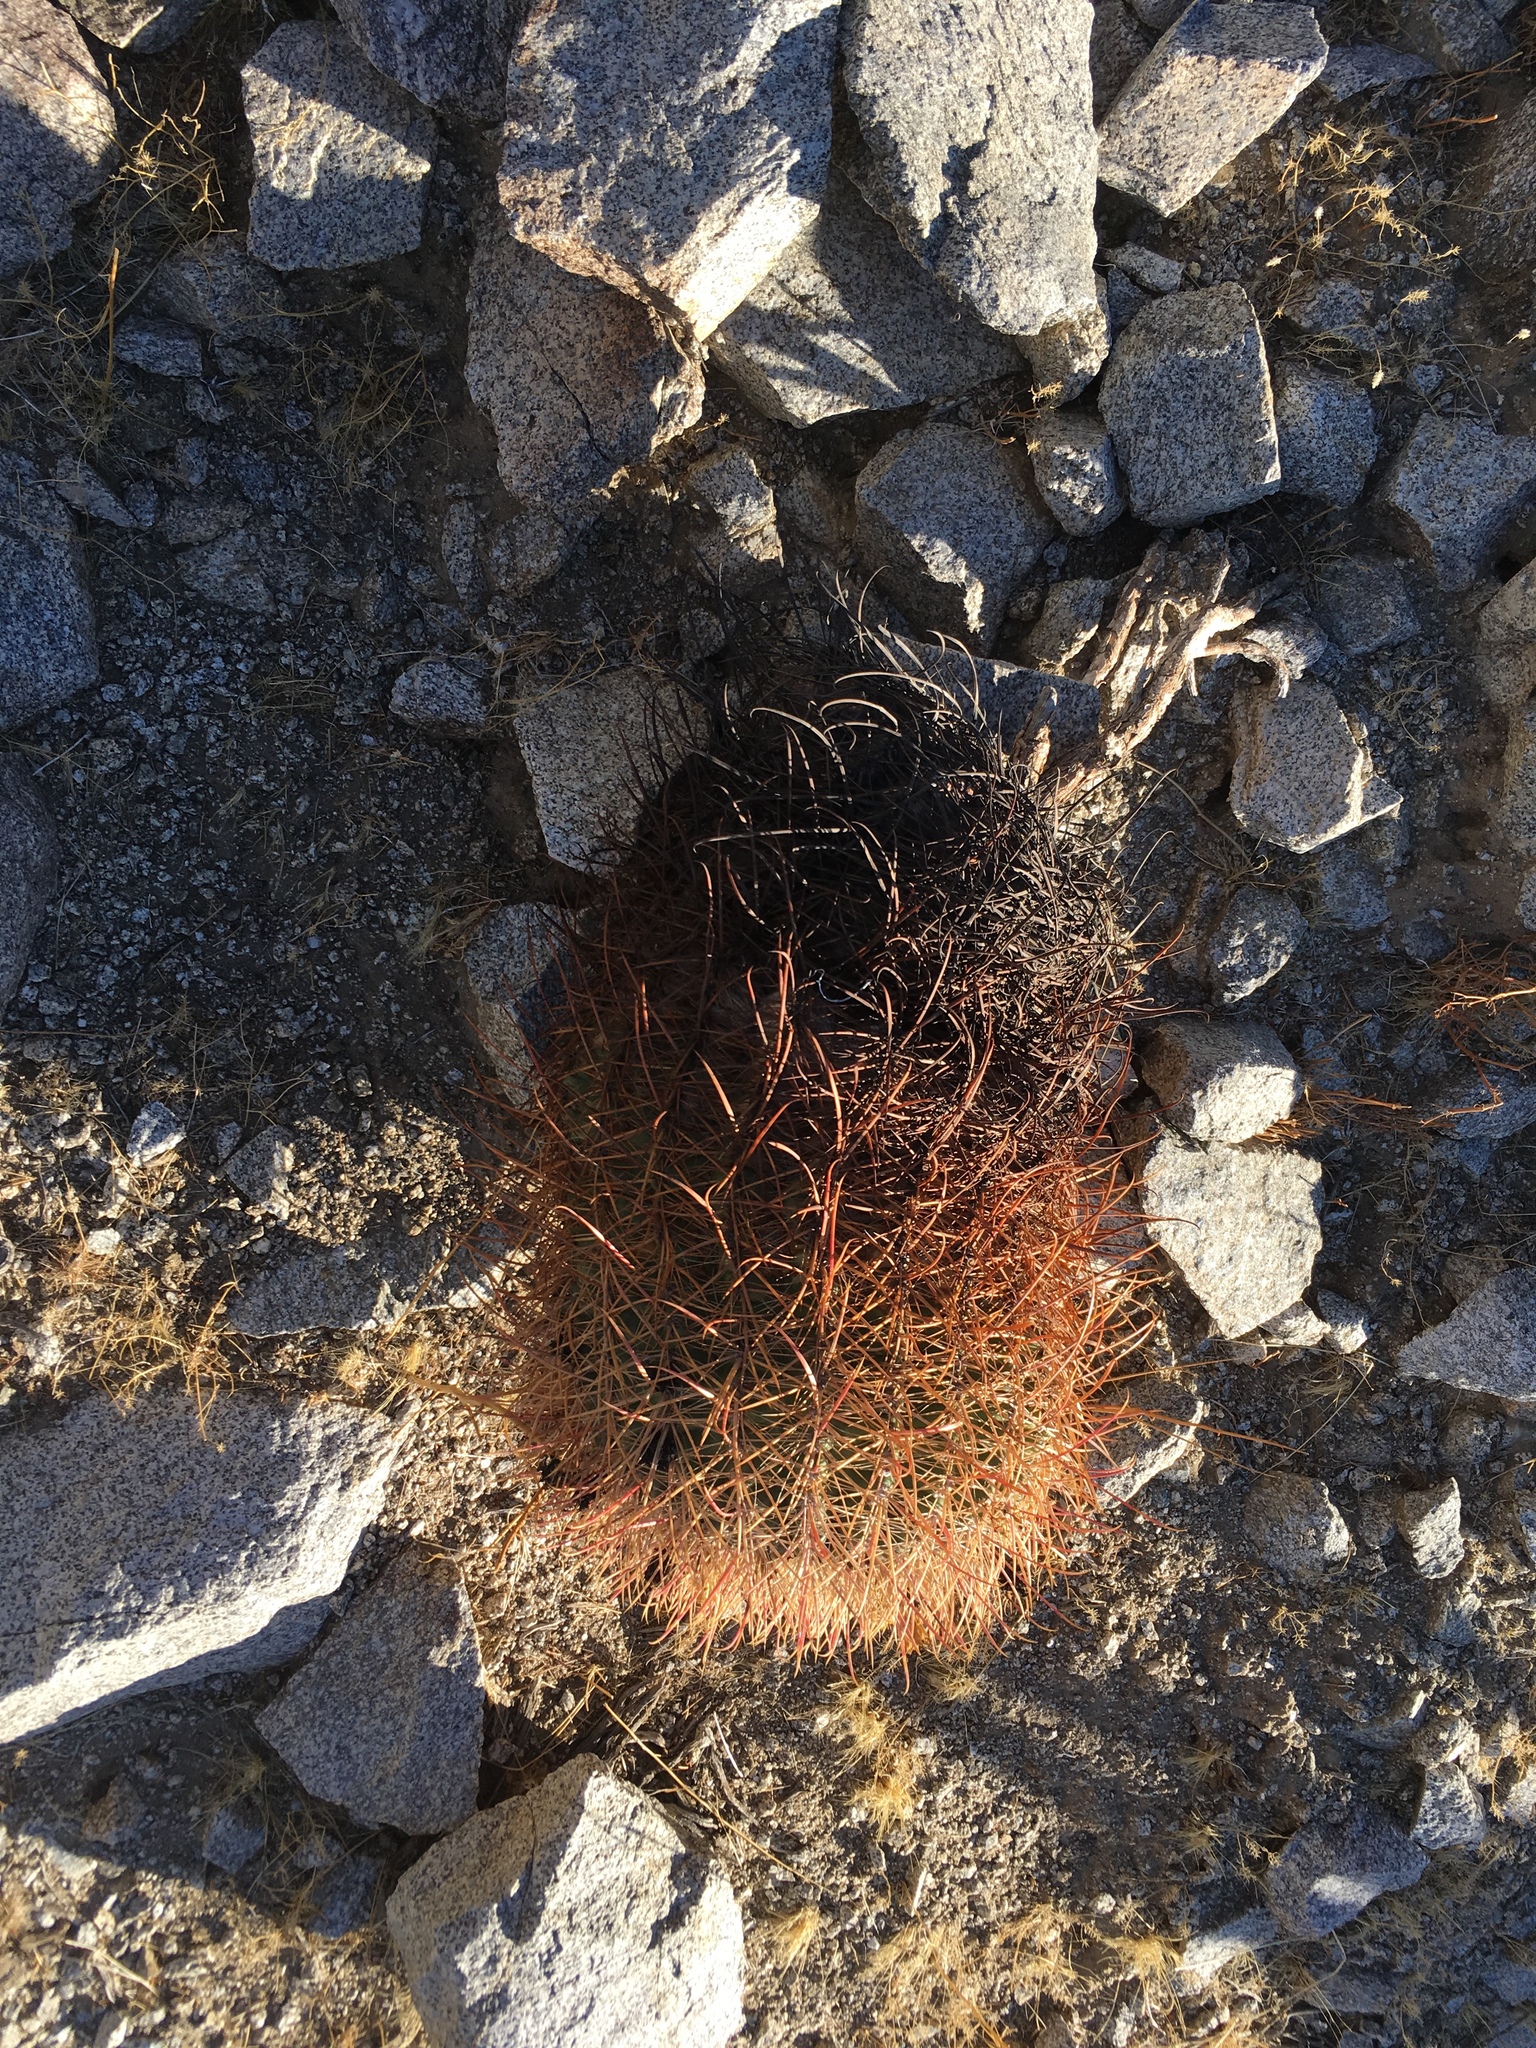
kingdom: Plantae
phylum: Tracheophyta
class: Magnoliopsida
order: Caryophyllales
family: Cactaceae
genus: Ferocactus
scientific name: Ferocactus cylindraceus
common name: California barrel cactus
